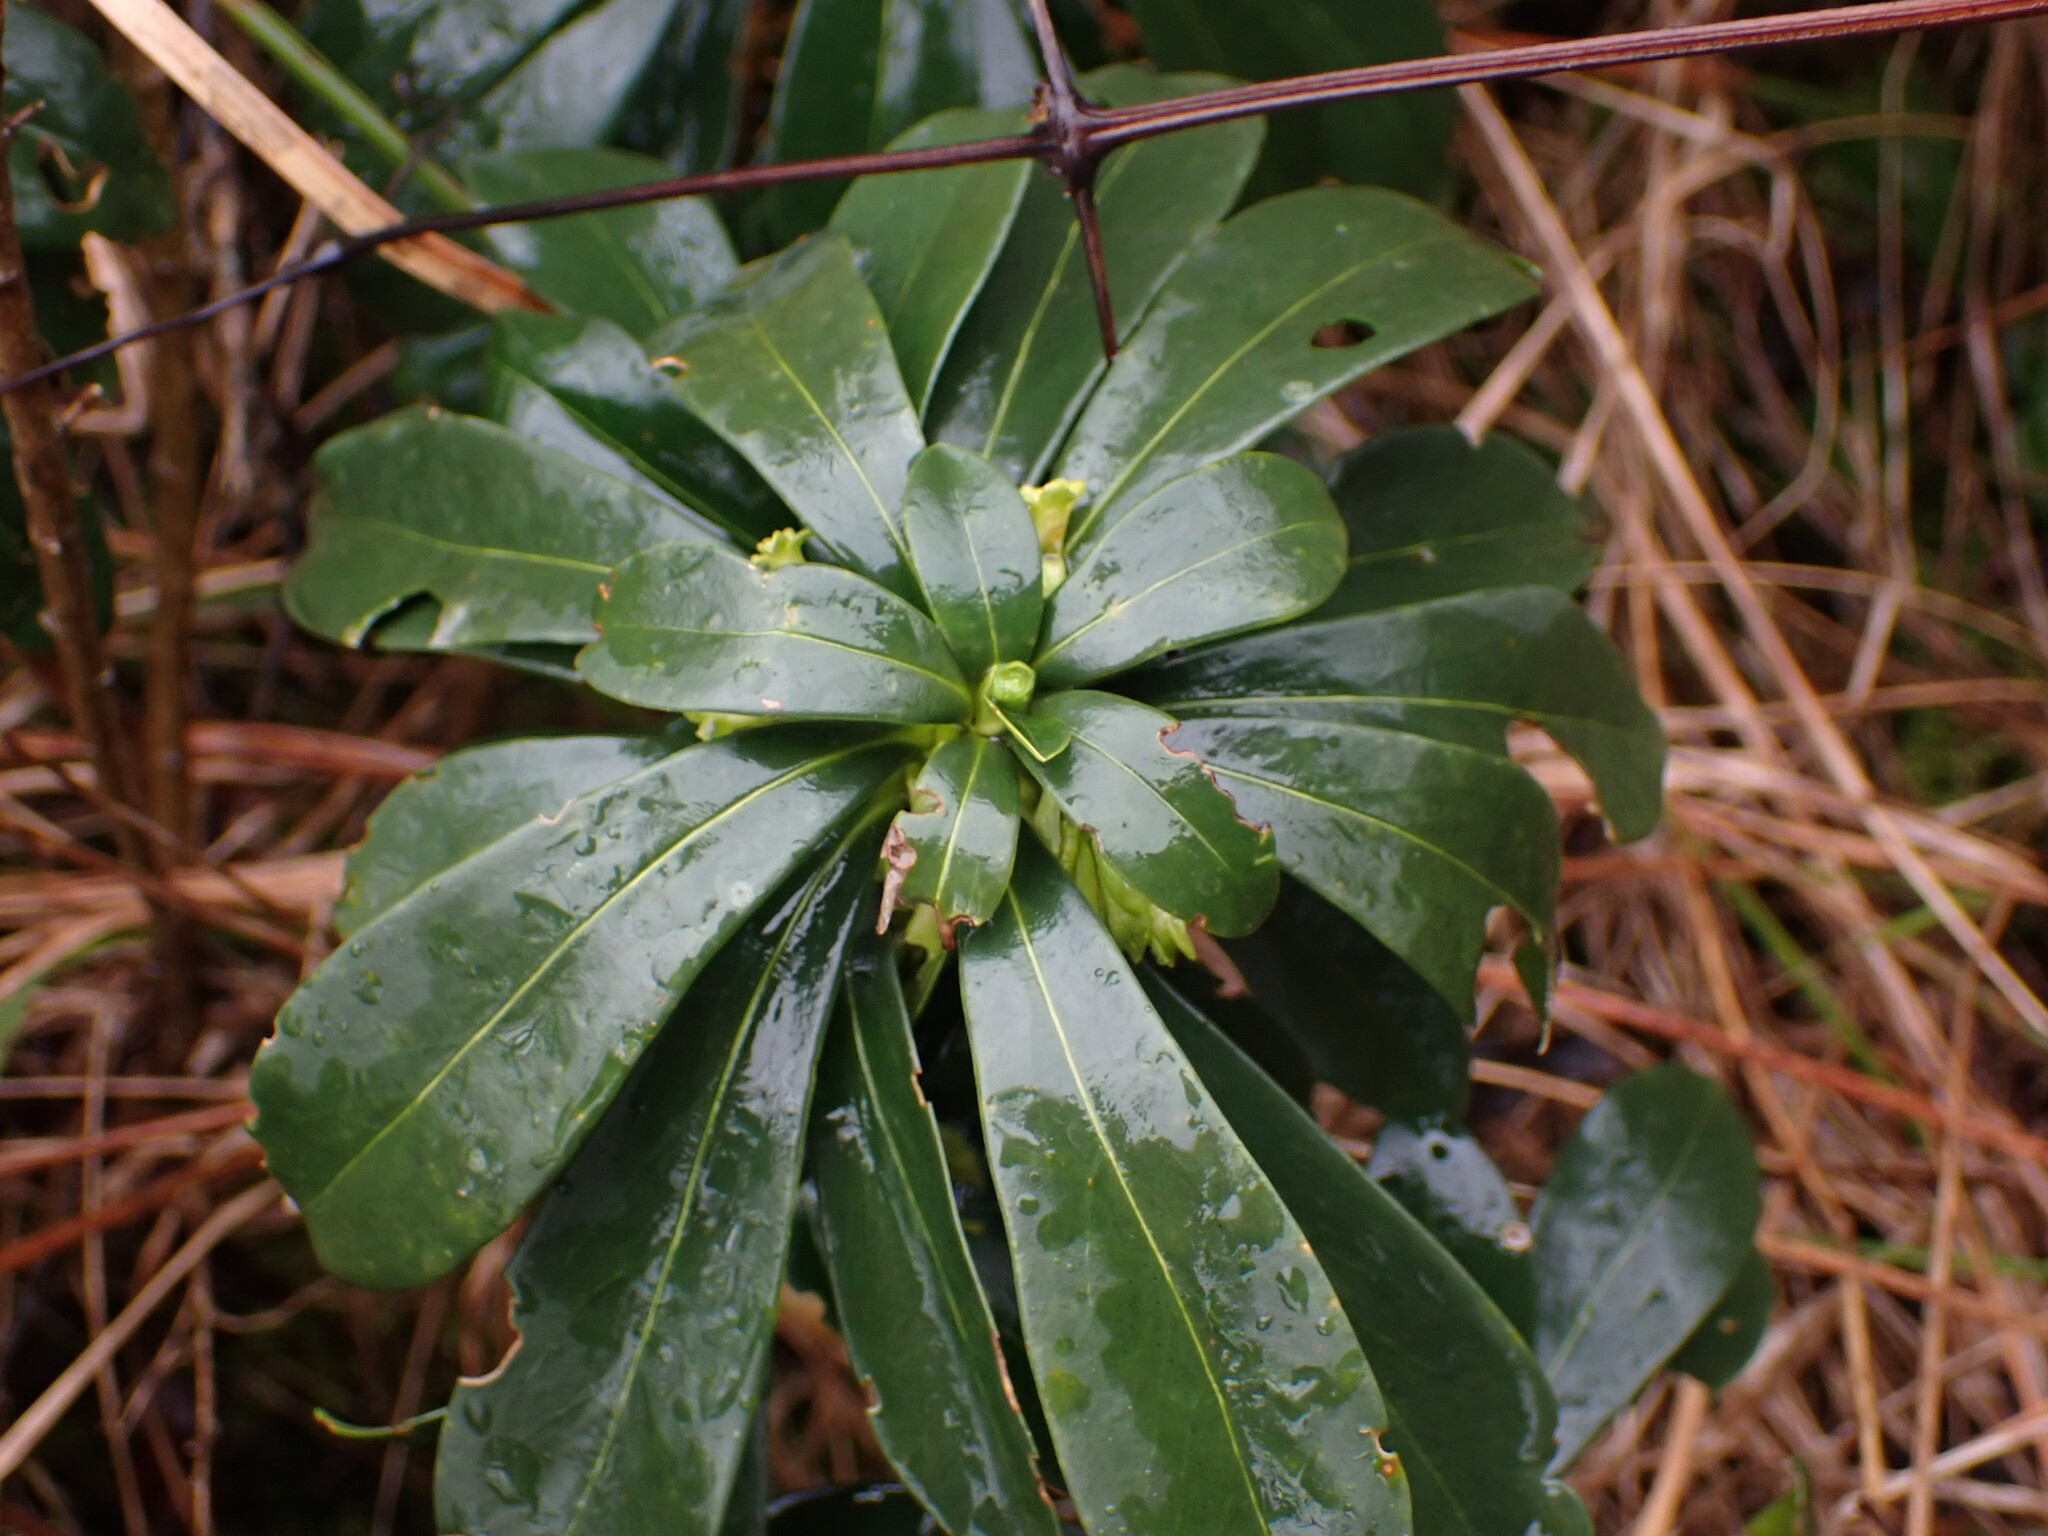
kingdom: Plantae
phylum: Tracheophyta
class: Magnoliopsida
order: Malvales
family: Thymelaeaceae
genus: Daphne
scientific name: Daphne laureola
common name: Spurge-laurel
